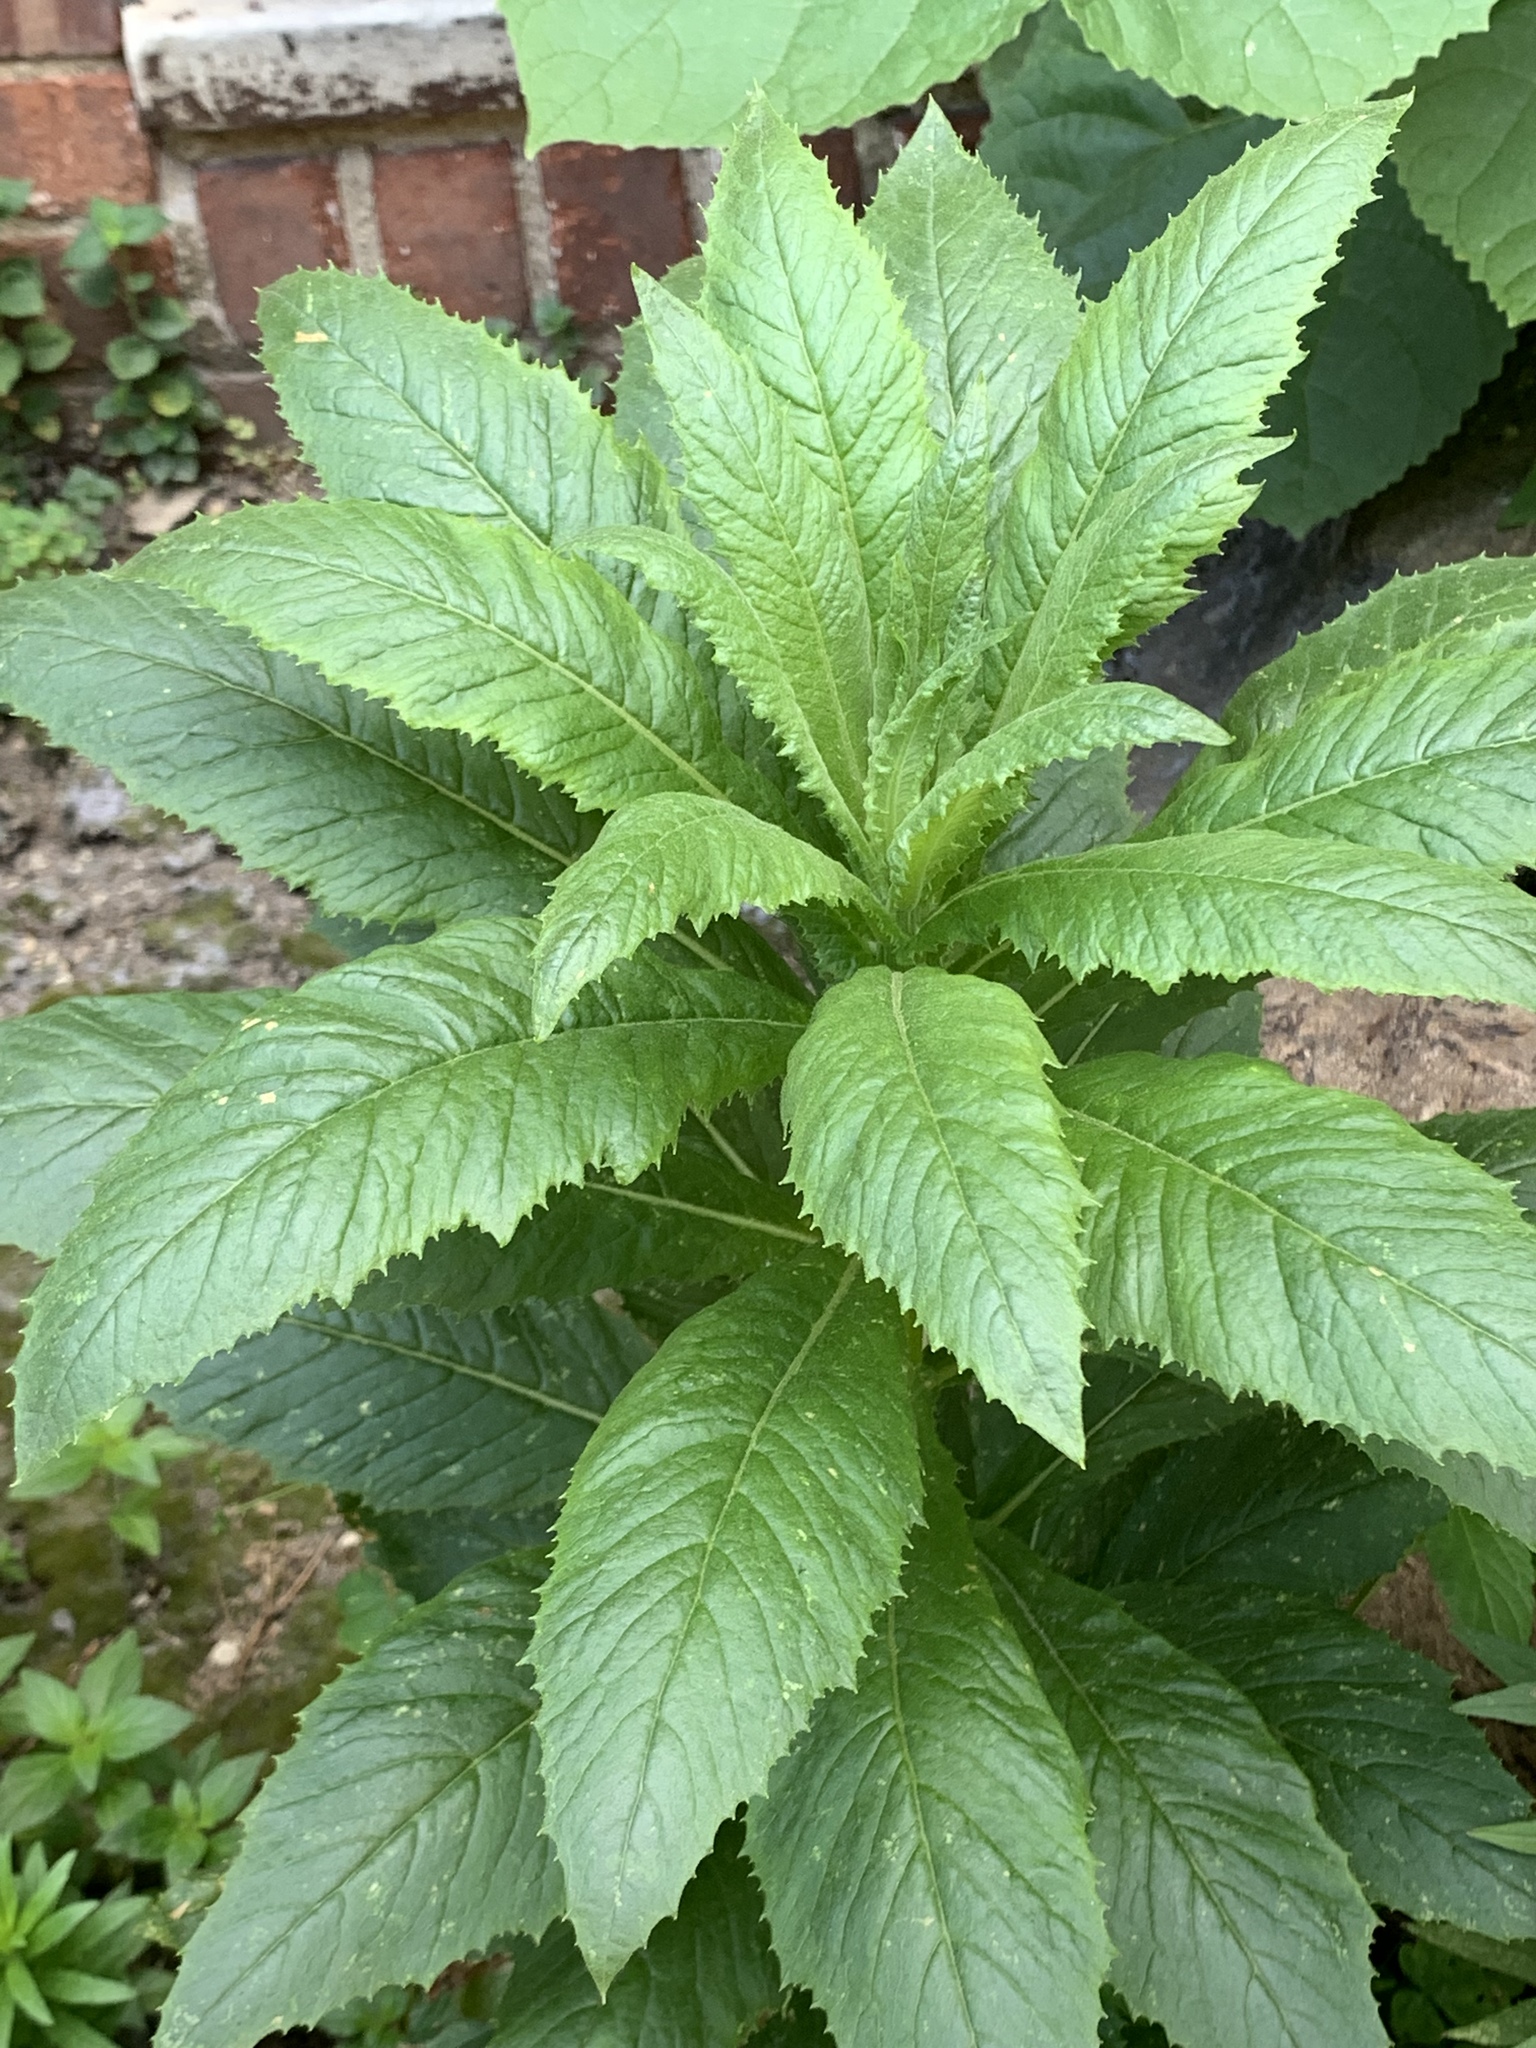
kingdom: Plantae
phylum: Tracheophyta
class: Magnoliopsida
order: Asterales
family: Asteraceae
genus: Erechtites
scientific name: Erechtites hieraciifolius
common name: American burnweed
